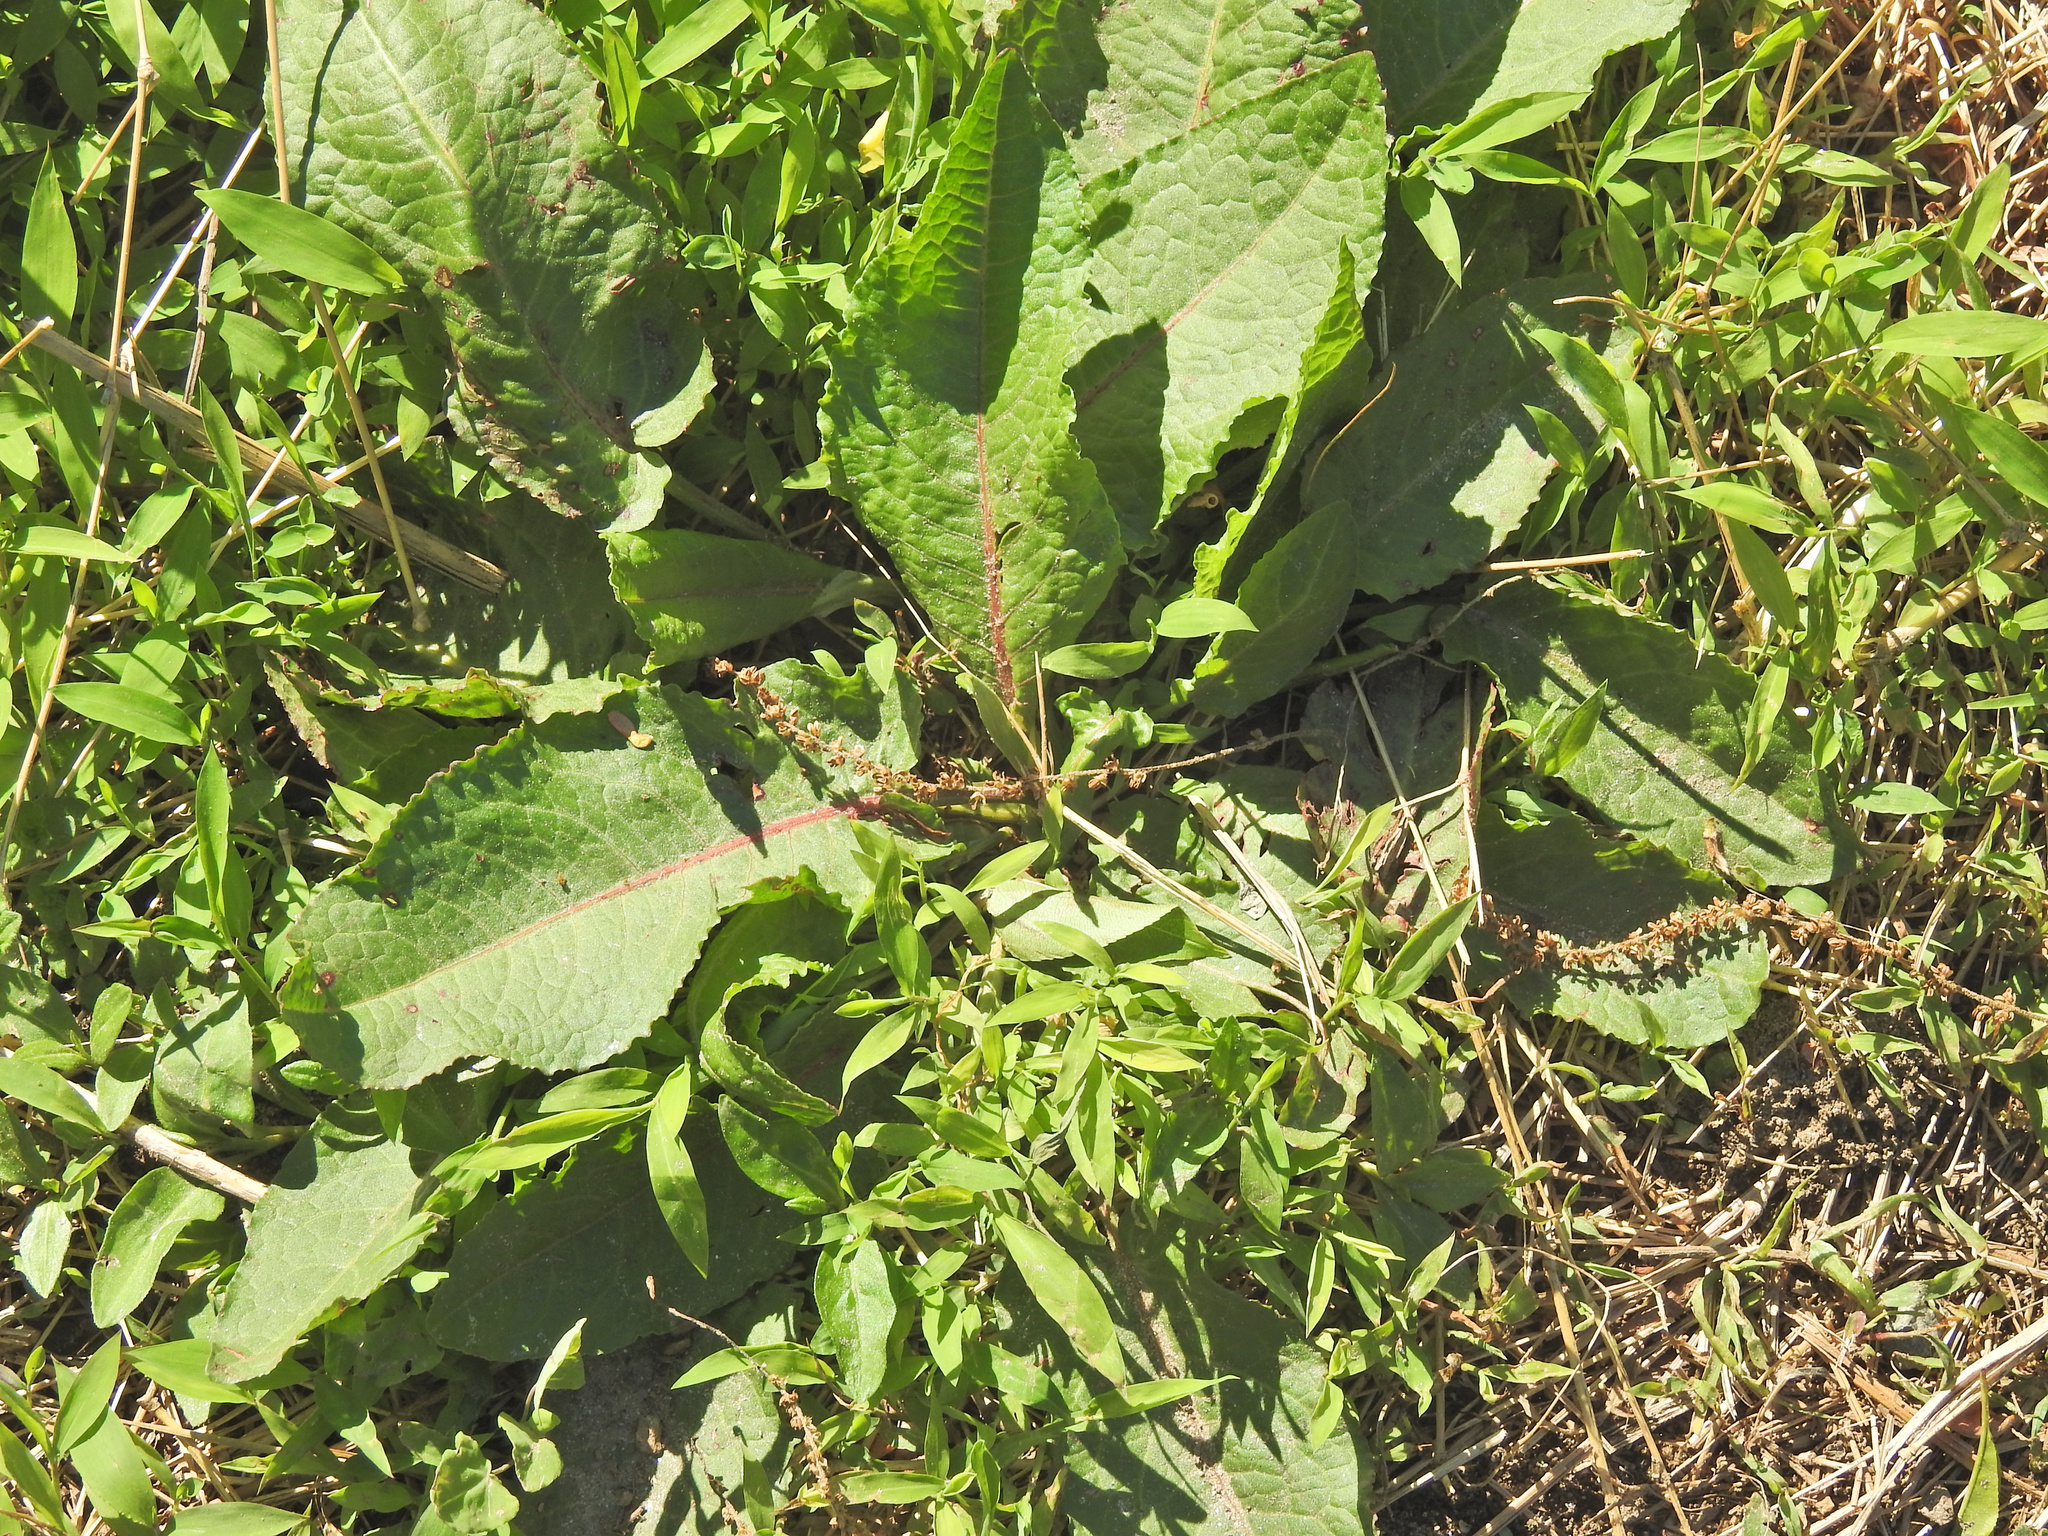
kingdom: Plantae
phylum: Tracheophyta
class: Magnoliopsida
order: Caryophyllales
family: Polygonaceae
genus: Rumex
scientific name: Rumex obtusifolius
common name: Bitter dock
